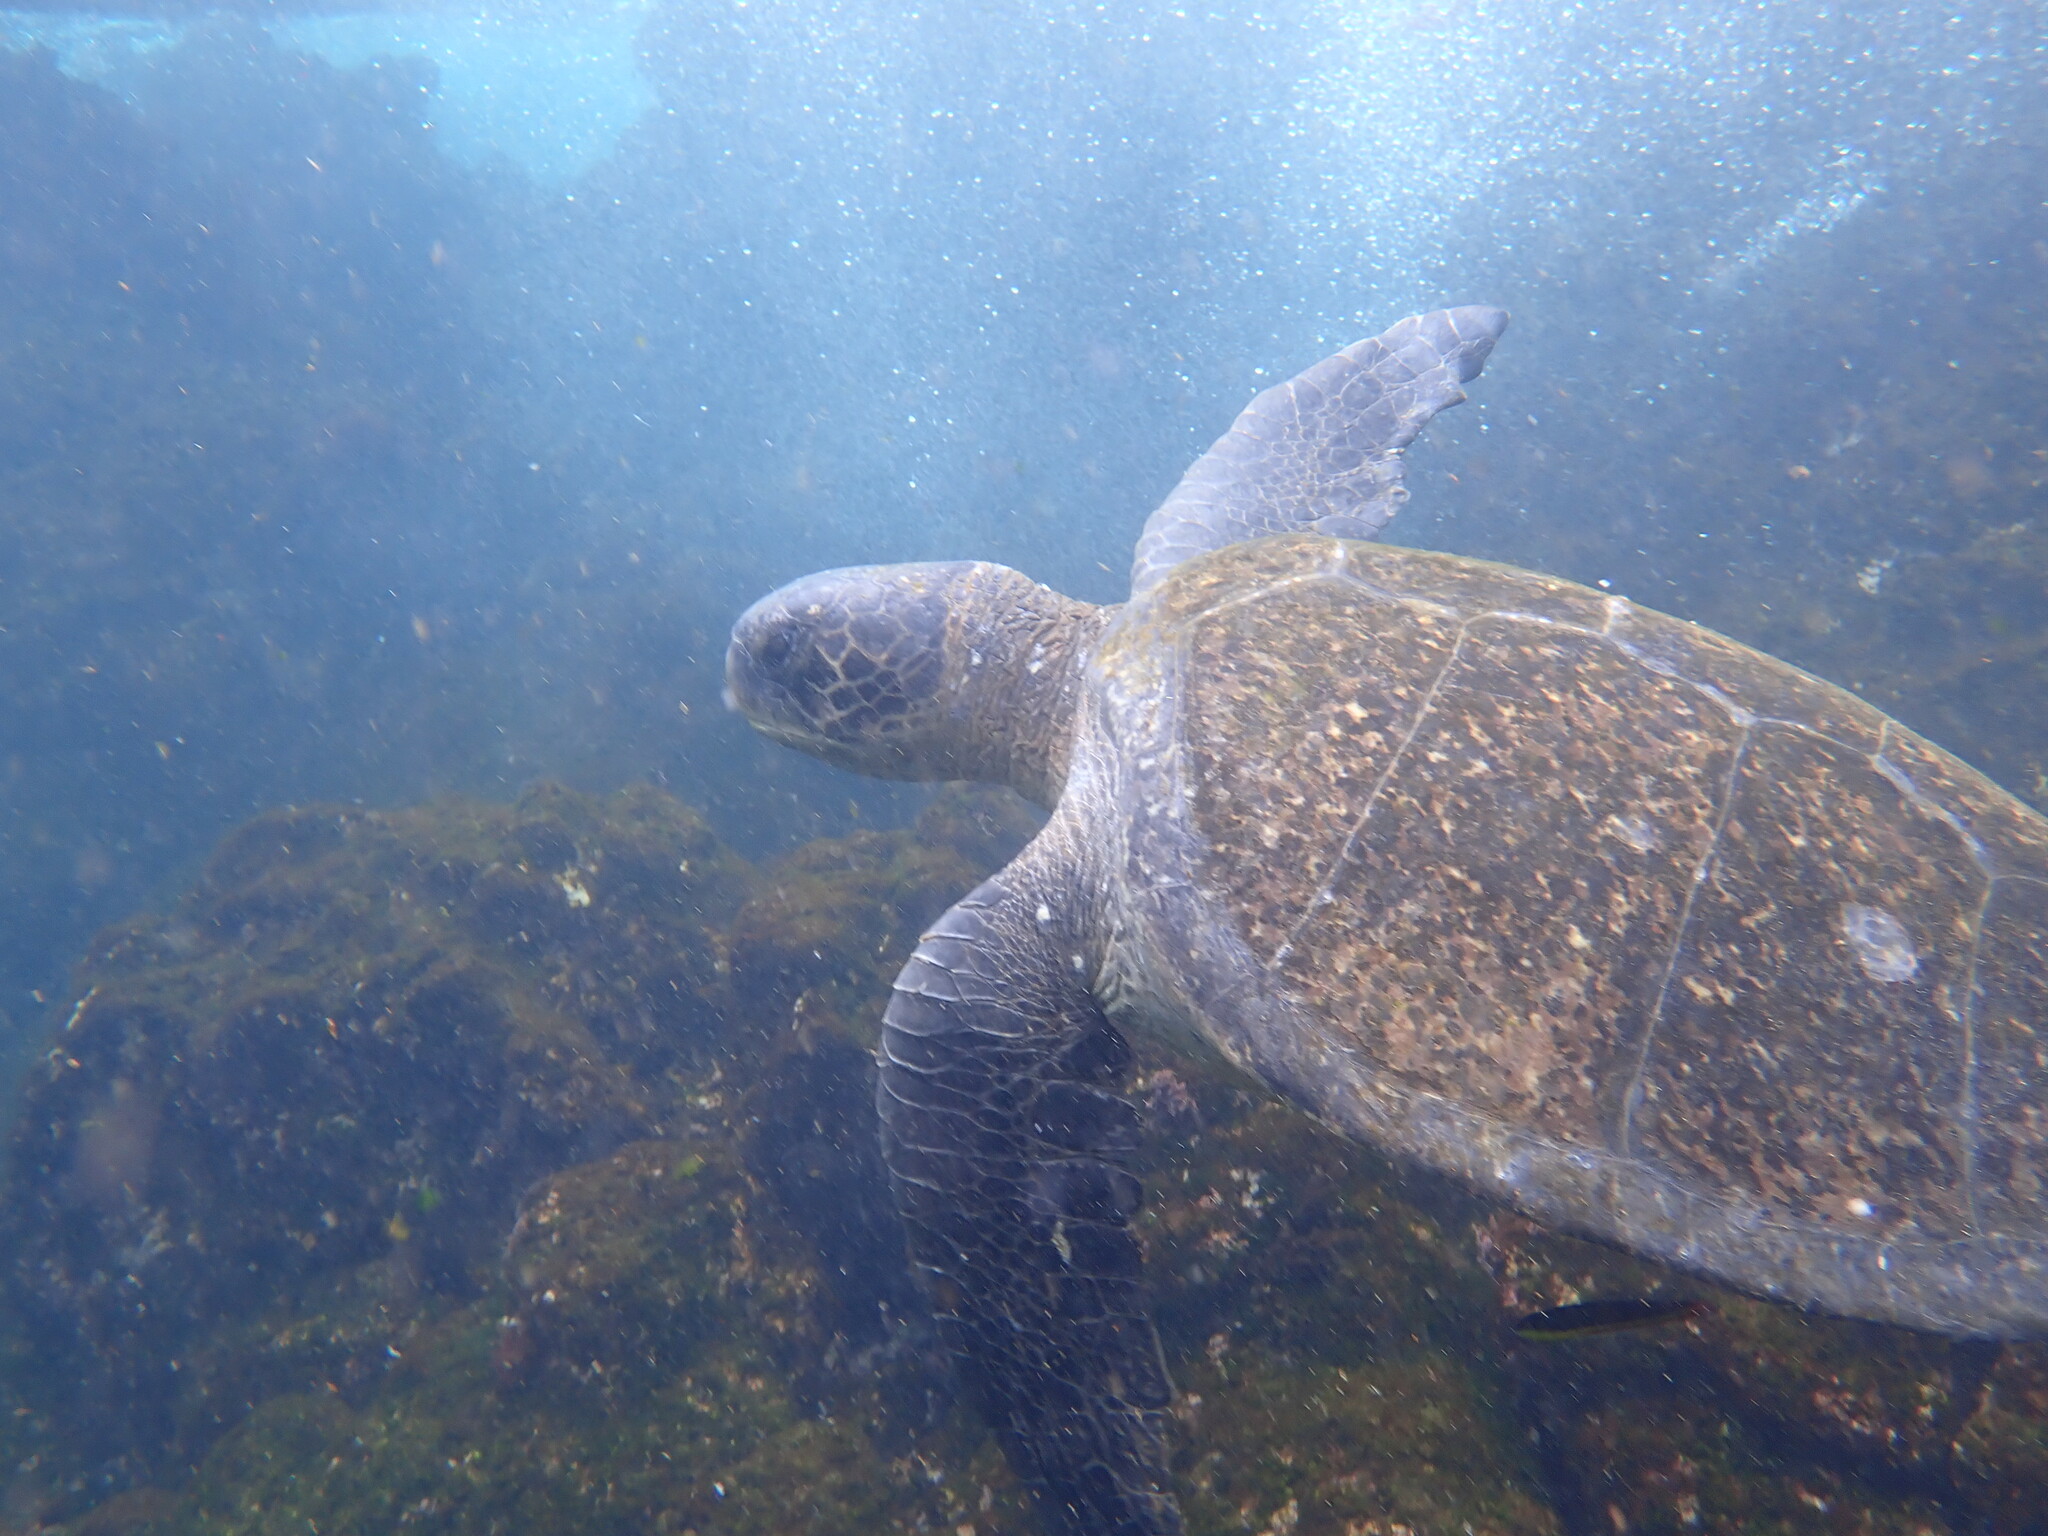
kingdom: Animalia
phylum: Chordata
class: Testudines
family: Cheloniidae
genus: Chelonia
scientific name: Chelonia mydas
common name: Green turtle
